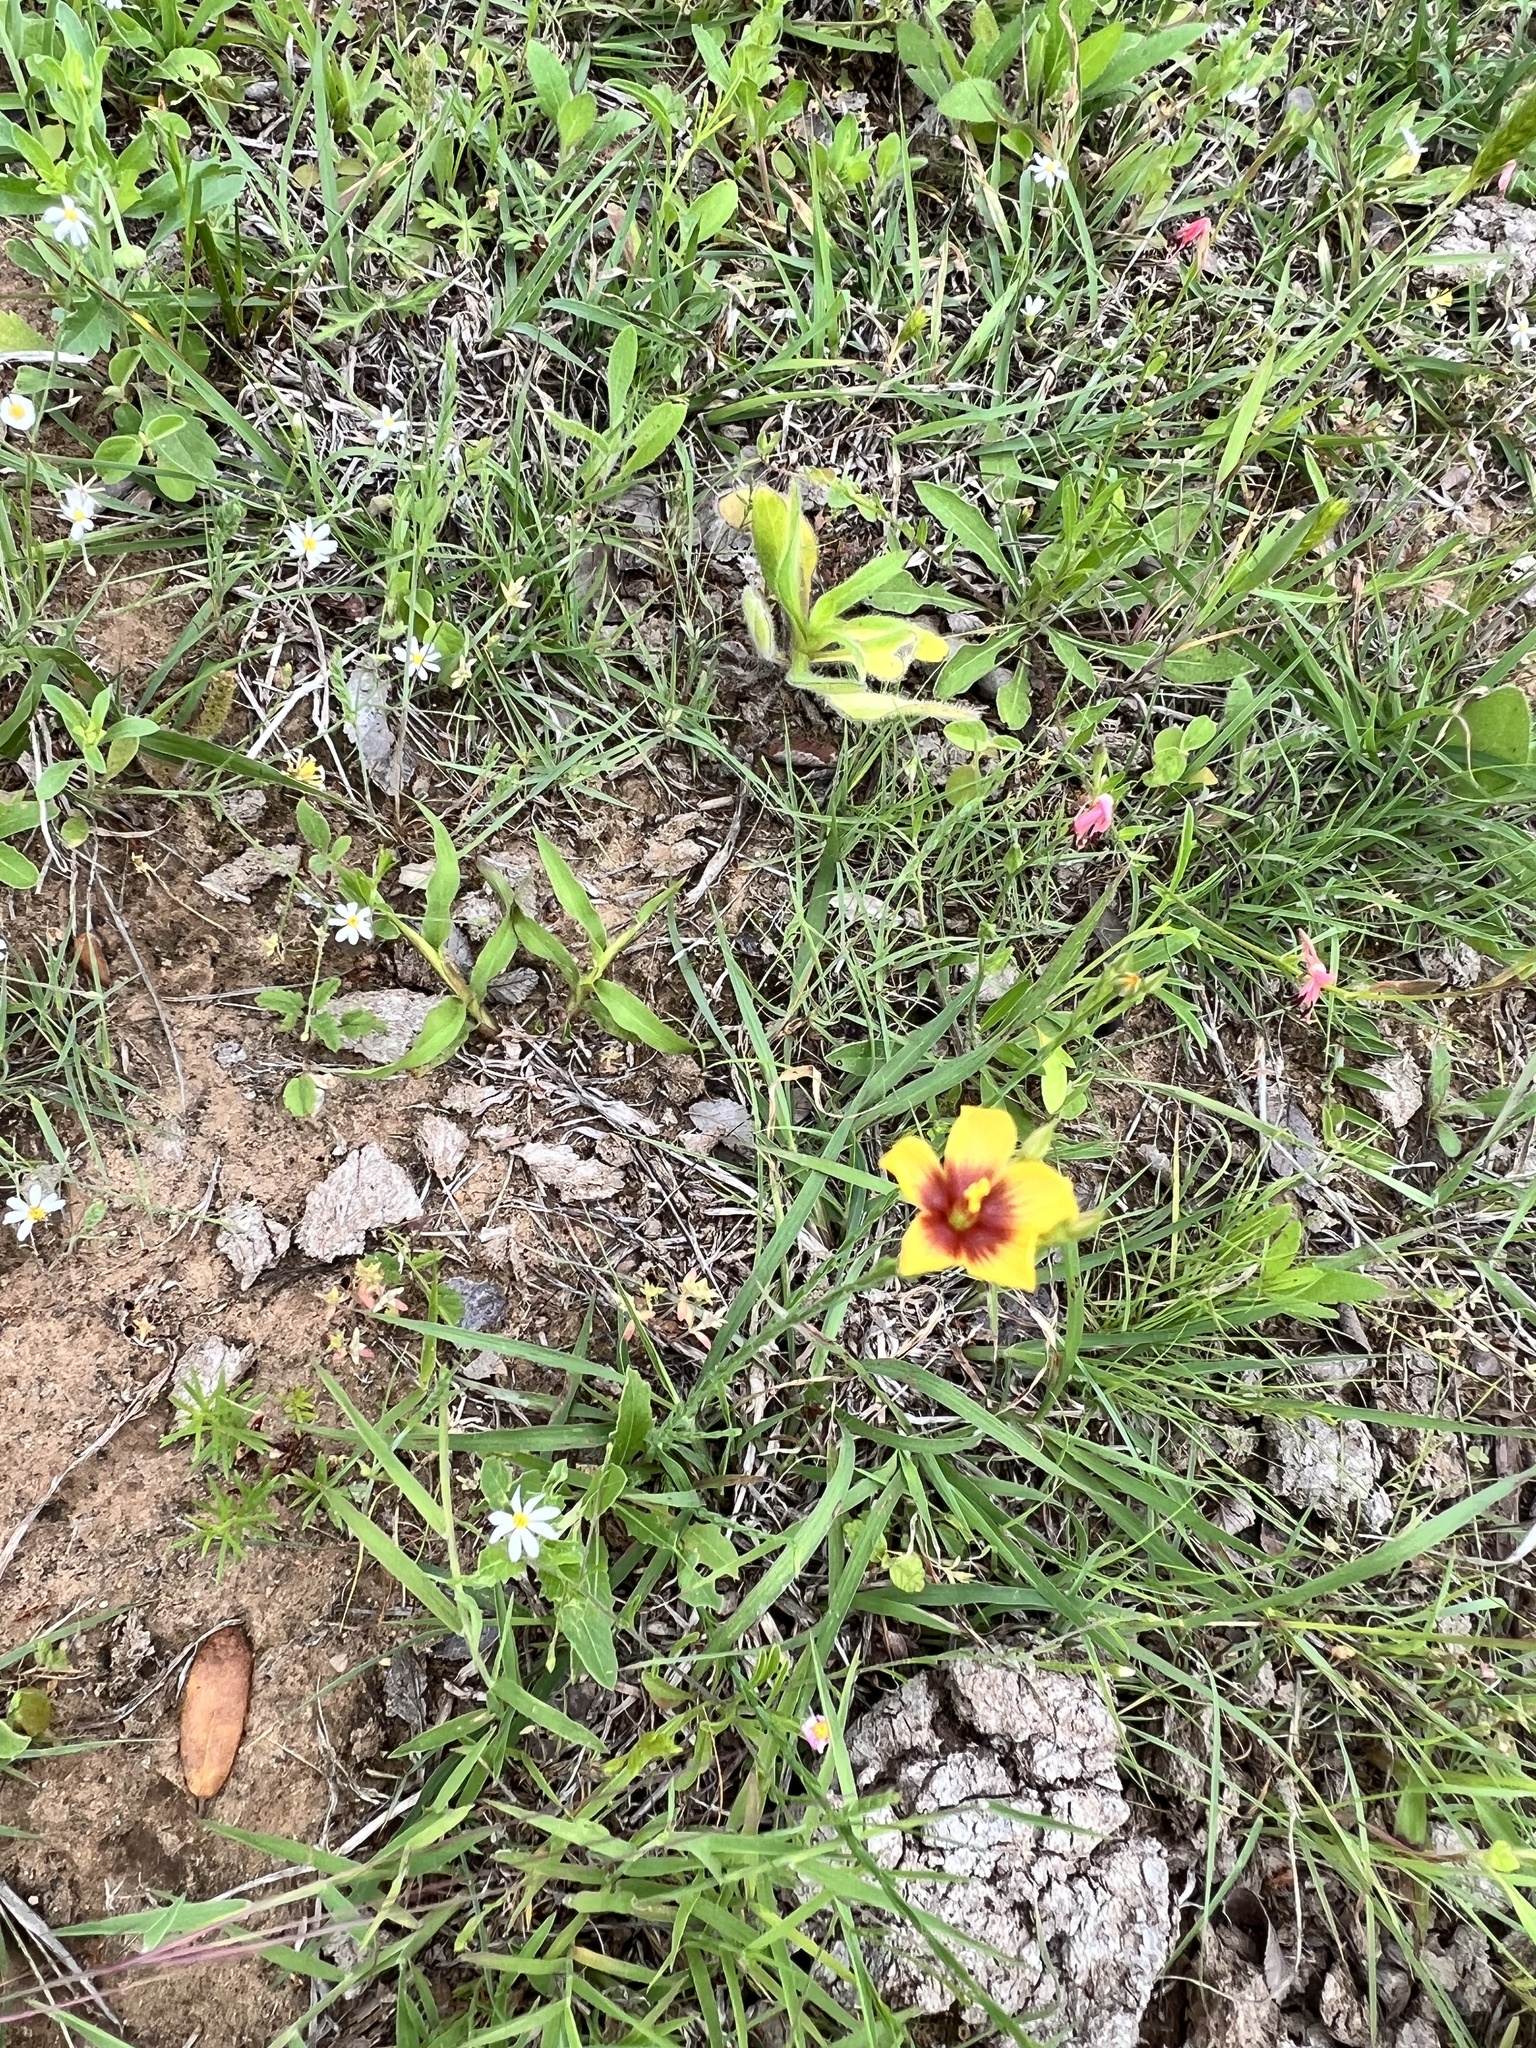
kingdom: Plantae
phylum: Tracheophyta
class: Magnoliopsida
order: Malpighiales
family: Linaceae
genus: Linum
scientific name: Linum hudsonioides
